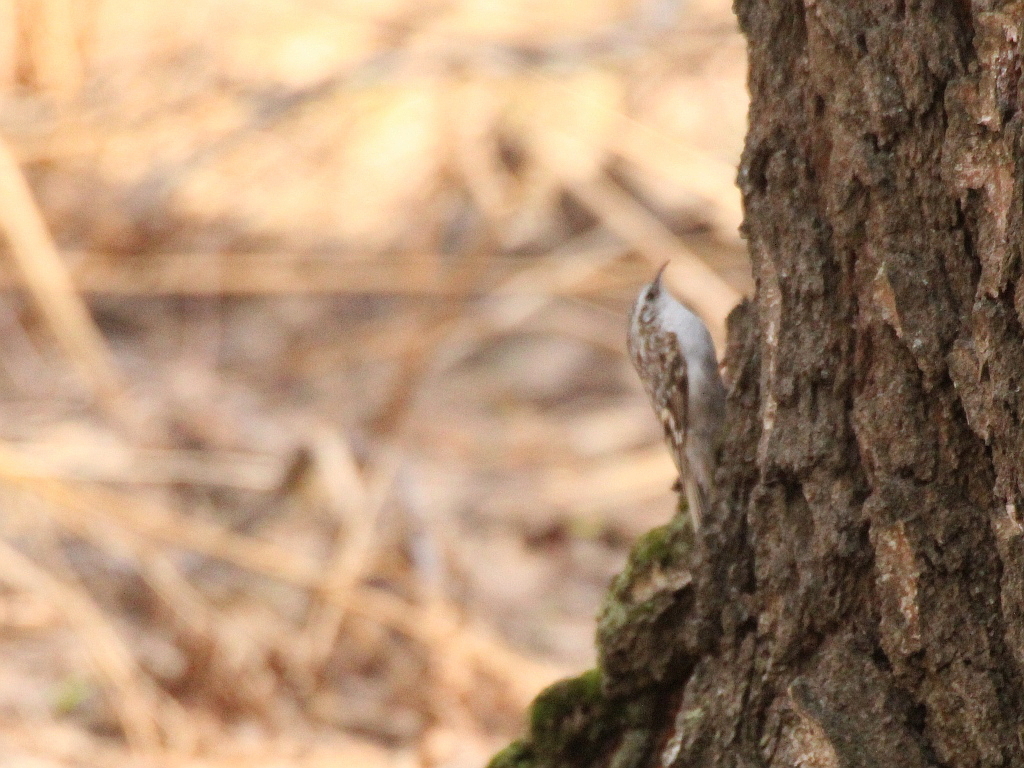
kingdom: Animalia
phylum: Chordata
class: Aves
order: Passeriformes
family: Certhiidae
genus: Certhia
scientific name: Certhia familiaris
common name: Eurasian treecreeper
